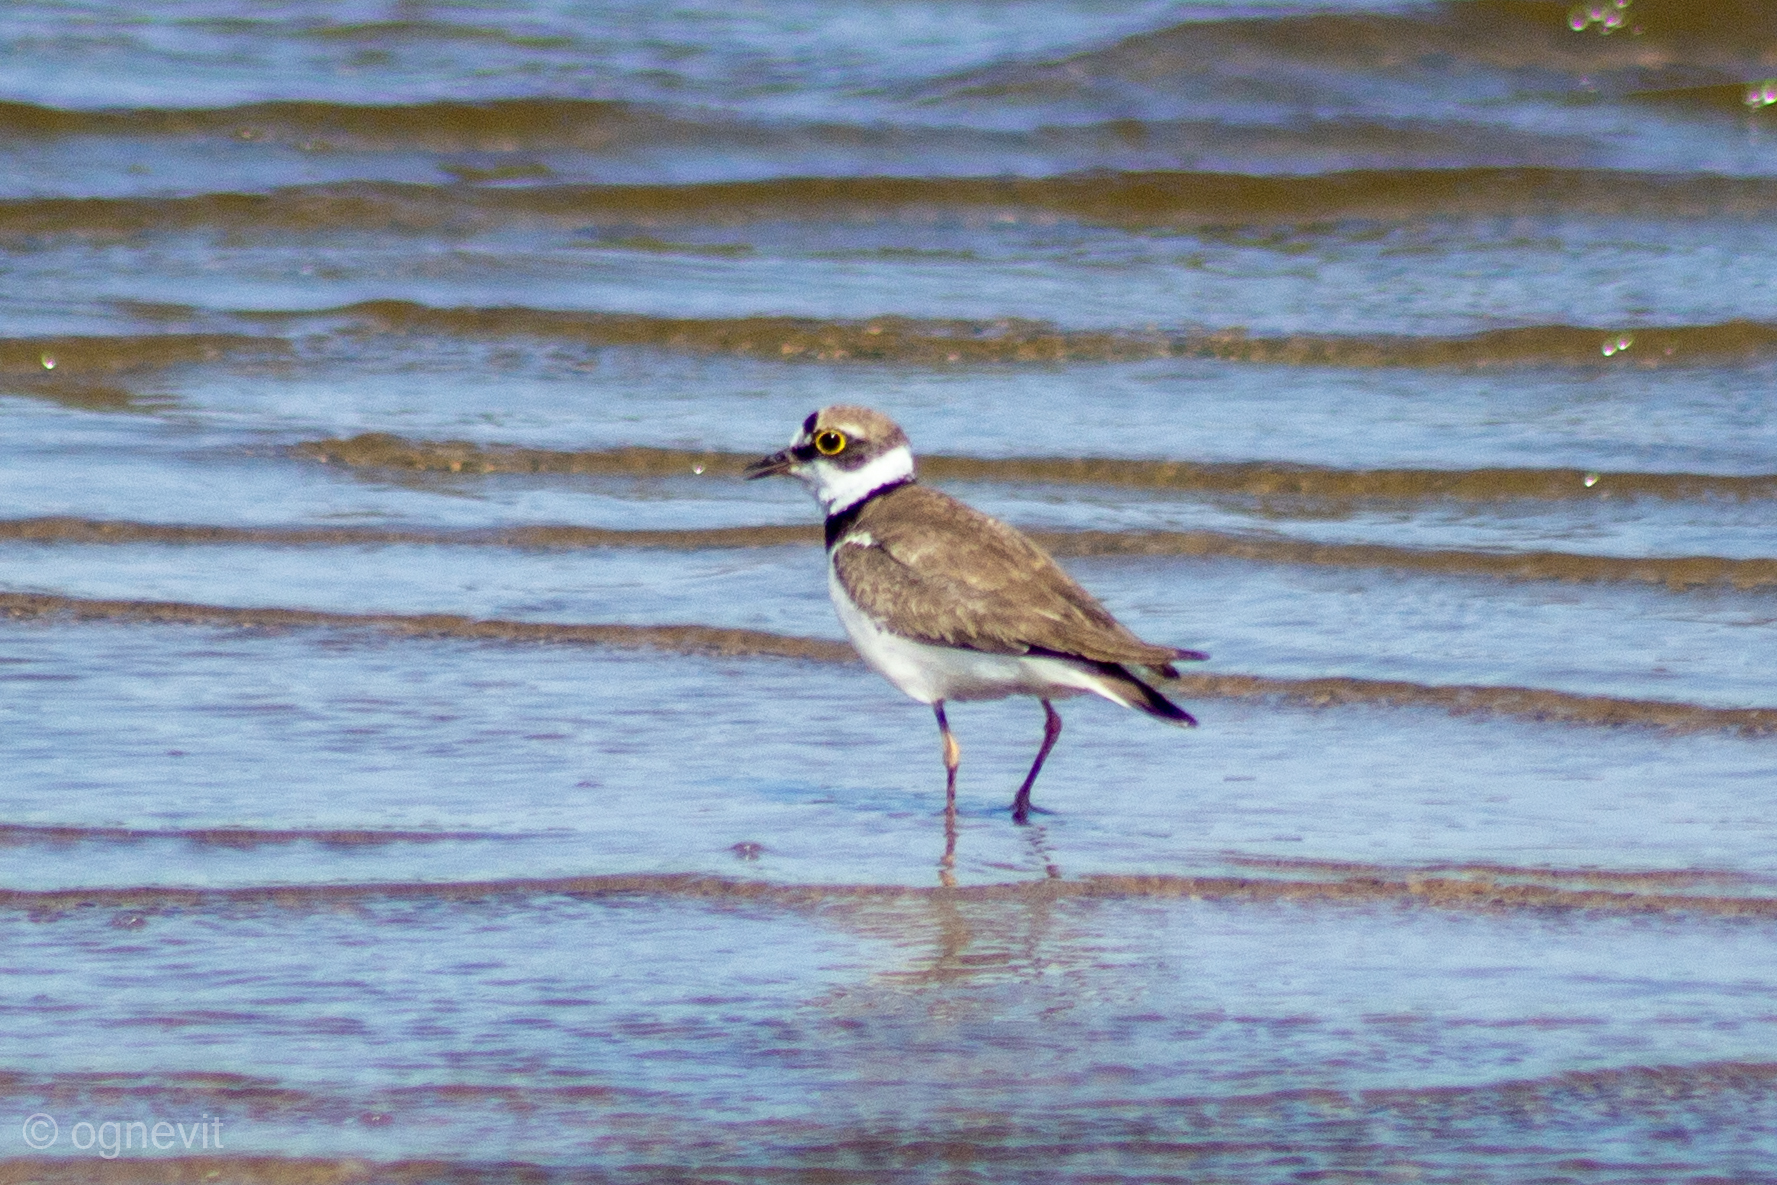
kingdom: Animalia
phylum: Chordata
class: Aves
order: Charadriiformes
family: Charadriidae
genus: Charadrius
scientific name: Charadrius dubius
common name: Little ringed plover
